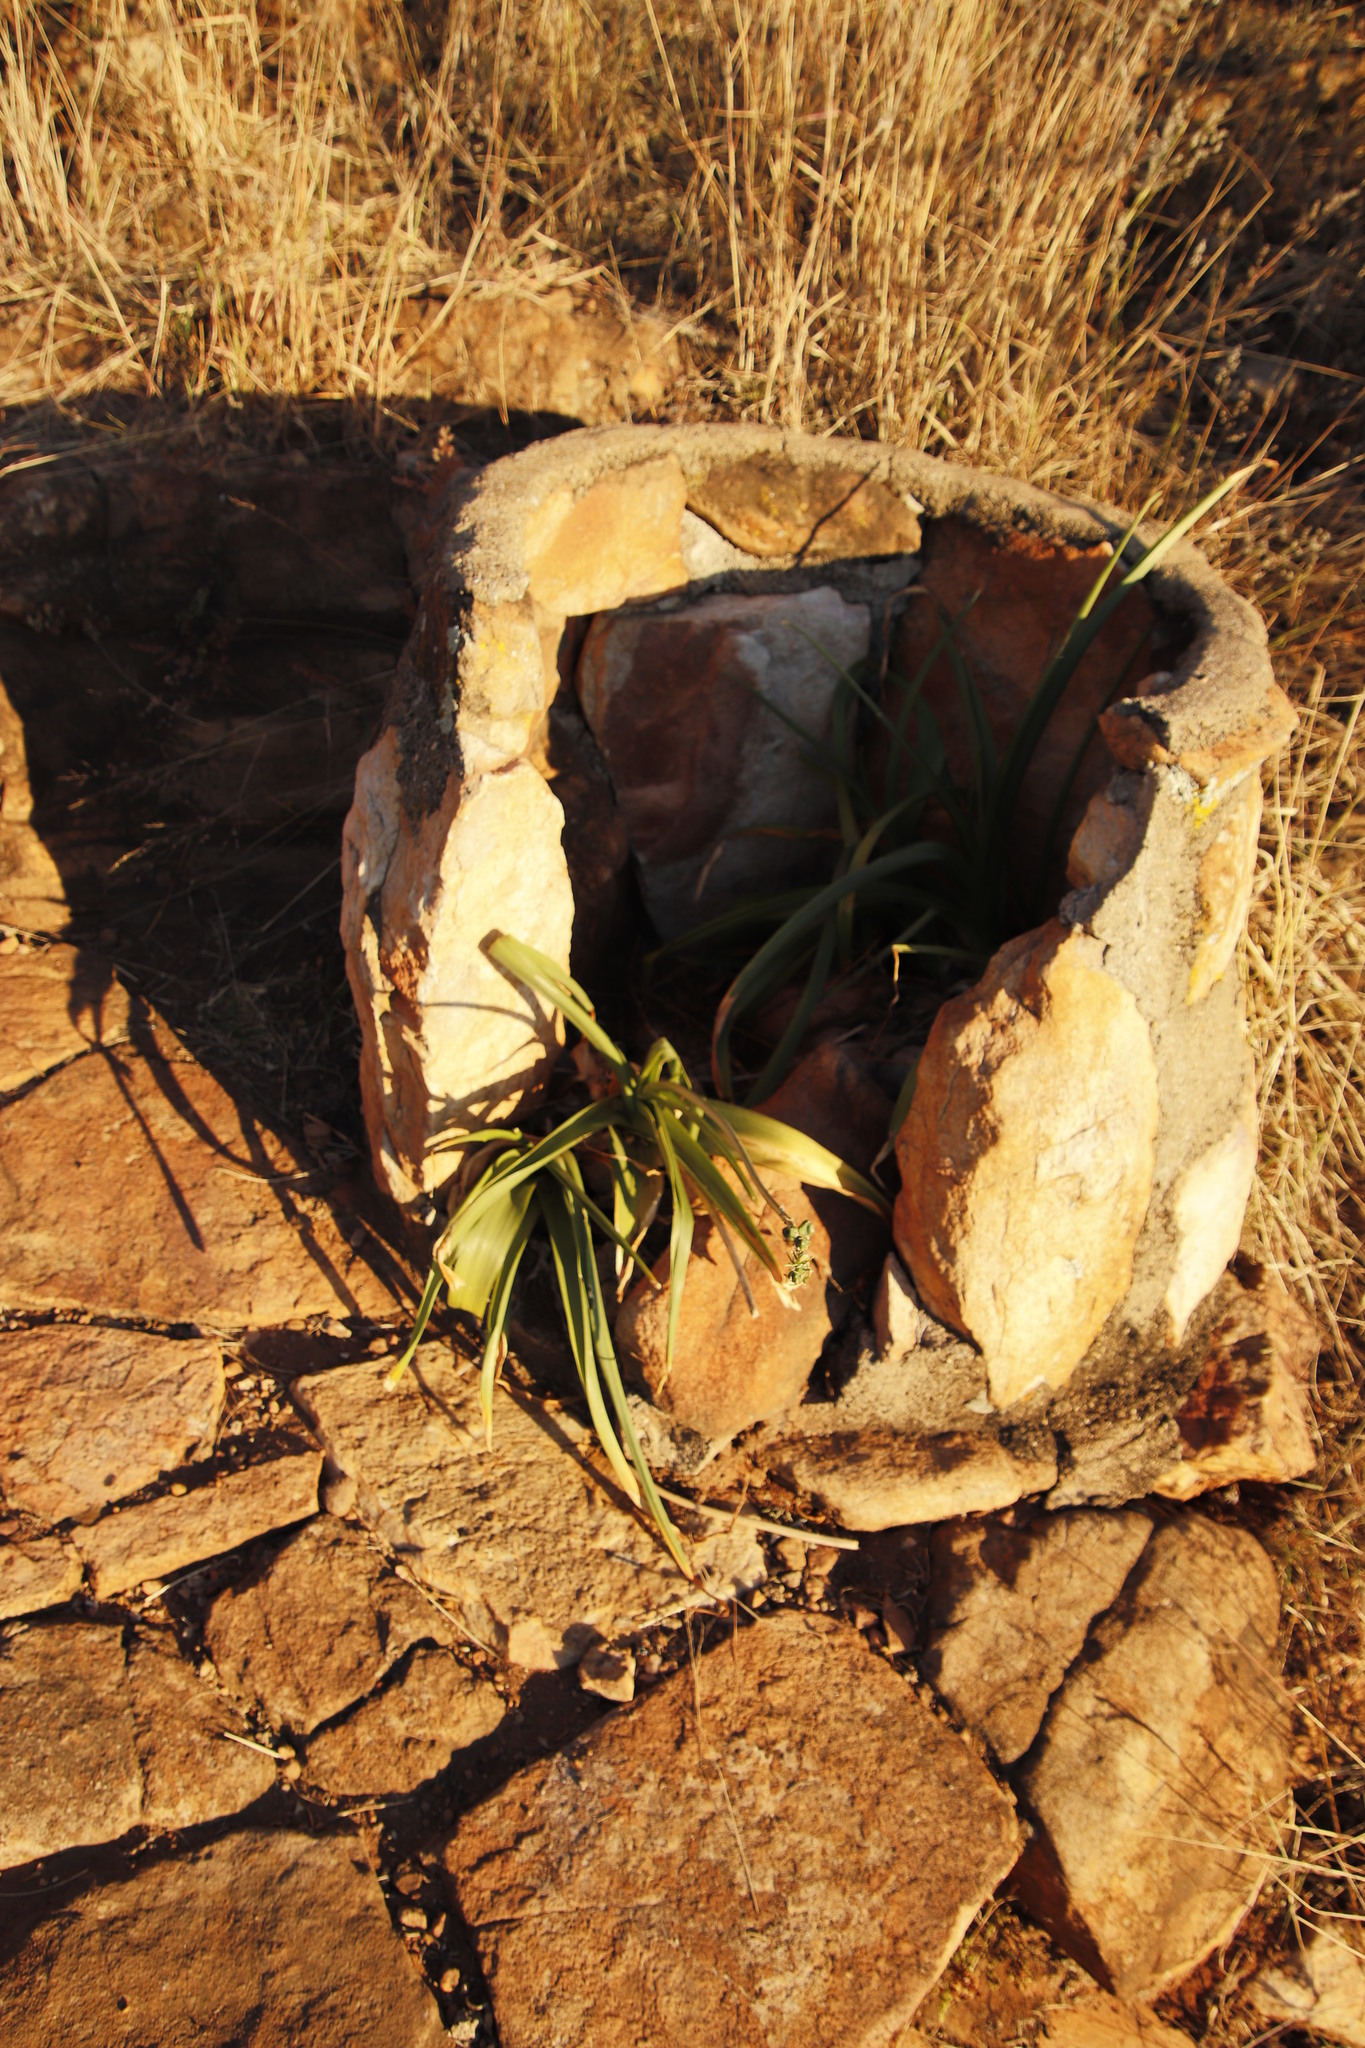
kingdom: Plantae
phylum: Tracheophyta
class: Liliopsida
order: Asparagales
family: Asparagaceae
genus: Albuca
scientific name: Albuca virens
